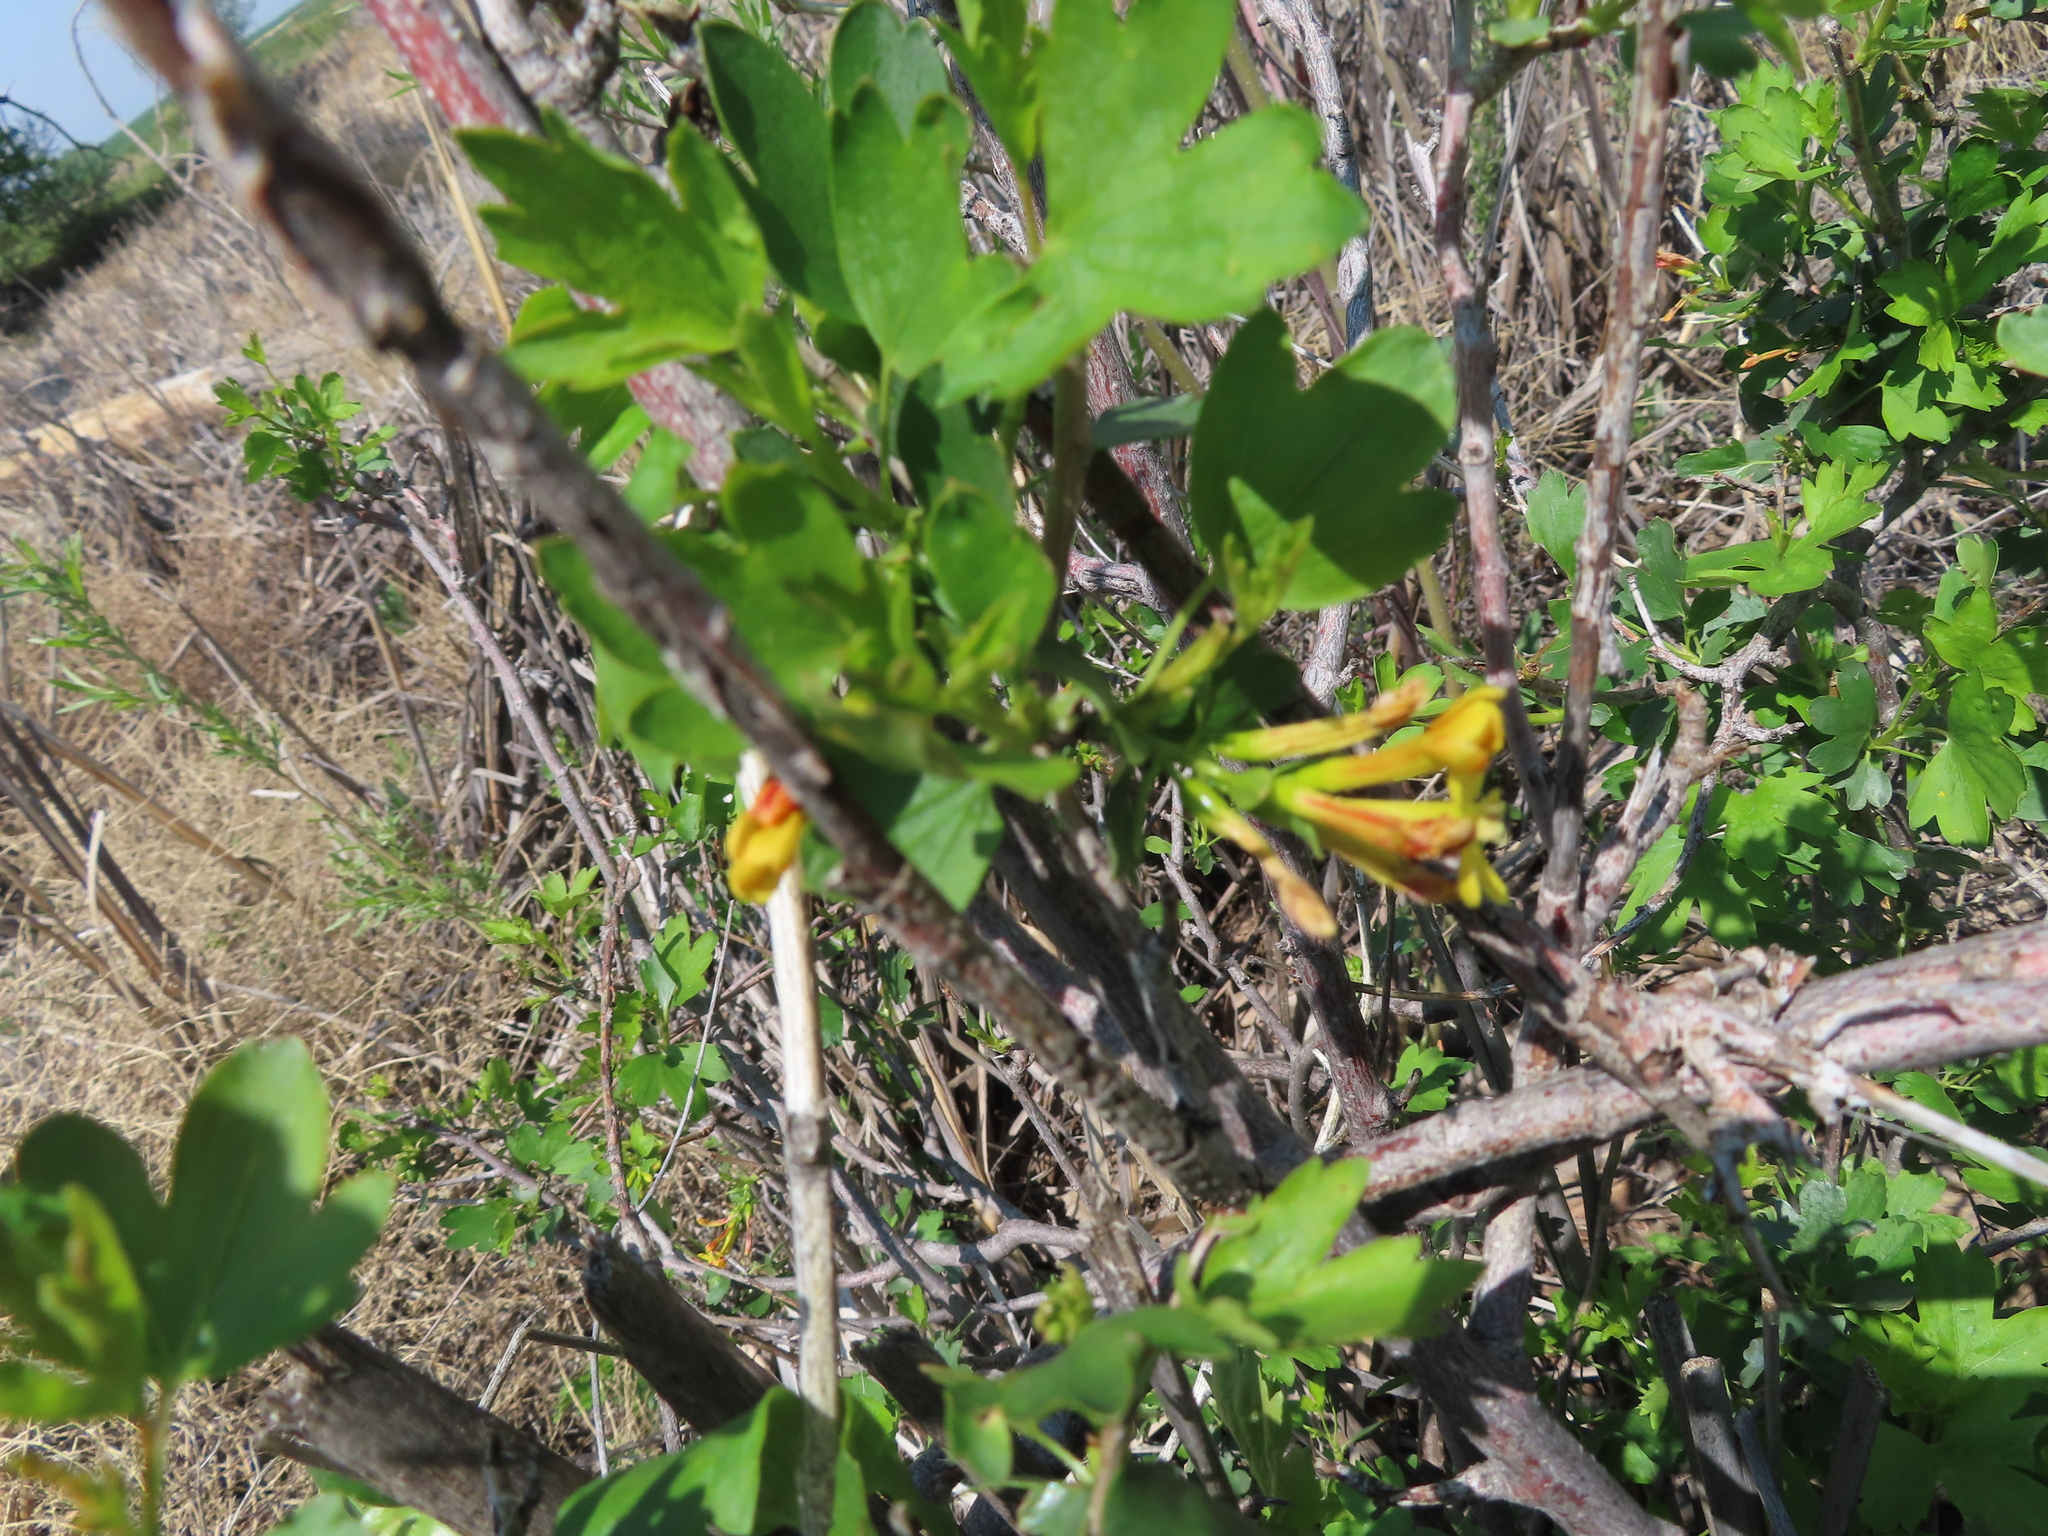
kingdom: Plantae
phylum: Tracheophyta
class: Magnoliopsida
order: Saxifragales
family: Grossulariaceae
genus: Ribes
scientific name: Ribes aureum
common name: Golden currant
